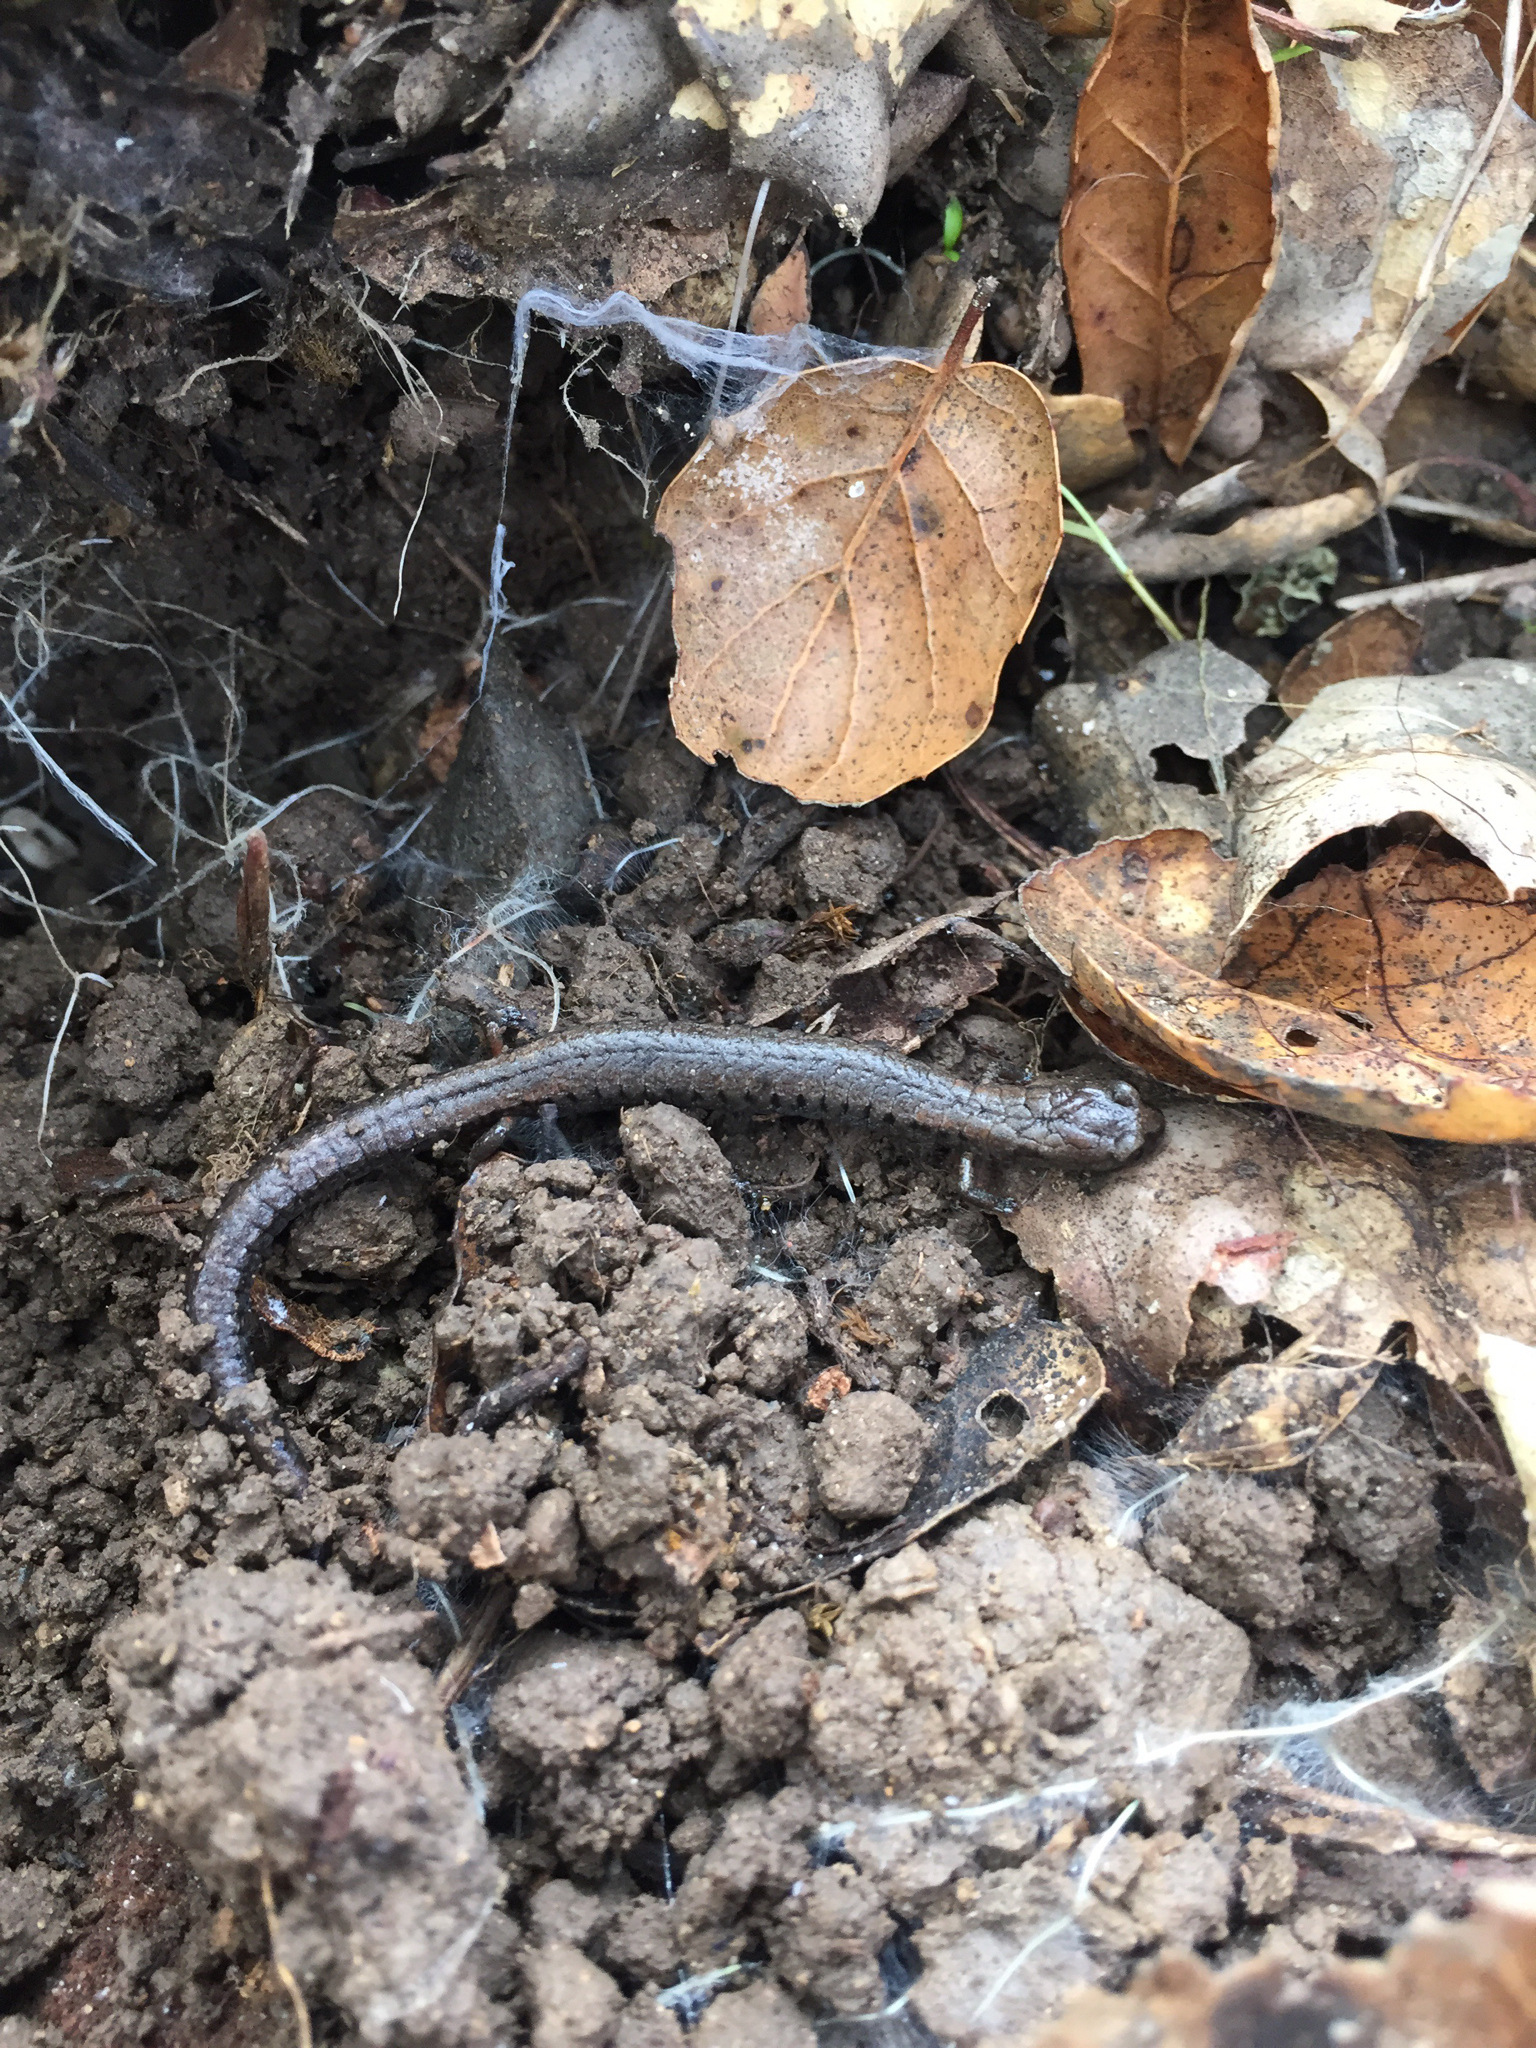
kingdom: Animalia
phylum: Chordata
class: Amphibia
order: Caudata
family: Plethodontidae
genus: Batrachoseps
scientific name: Batrachoseps attenuatus
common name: California slender salamander
